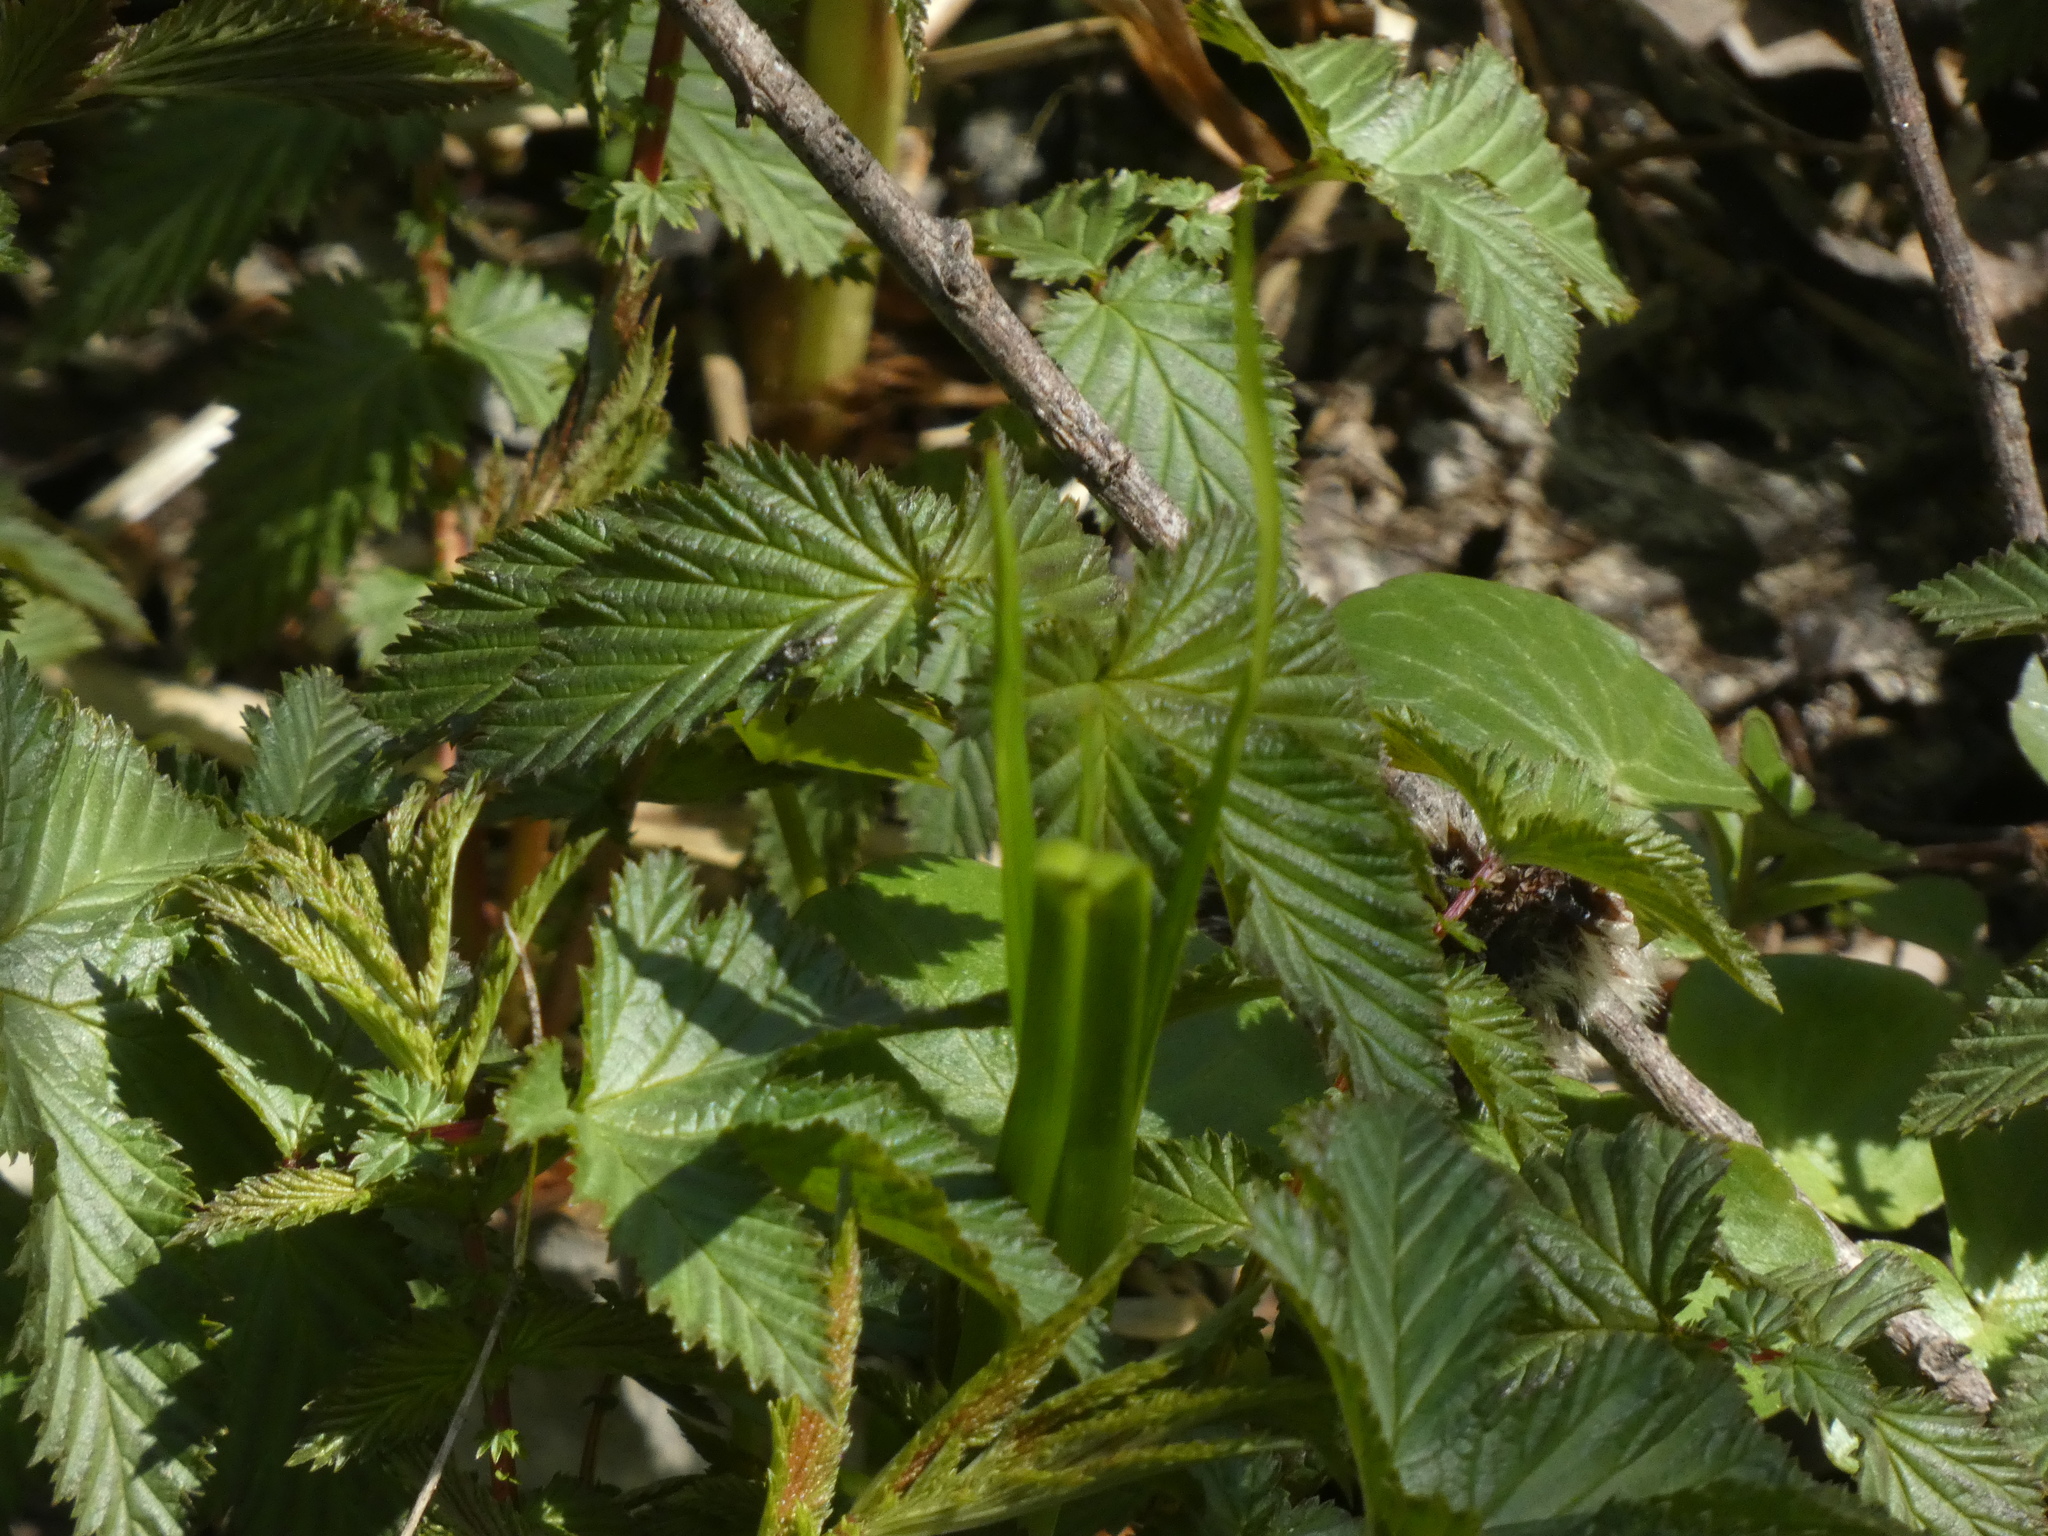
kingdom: Plantae
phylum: Tracheophyta
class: Magnoliopsida
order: Rosales
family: Rosaceae
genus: Filipendula
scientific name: Filipendula ulmaria
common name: Meadowsweet
